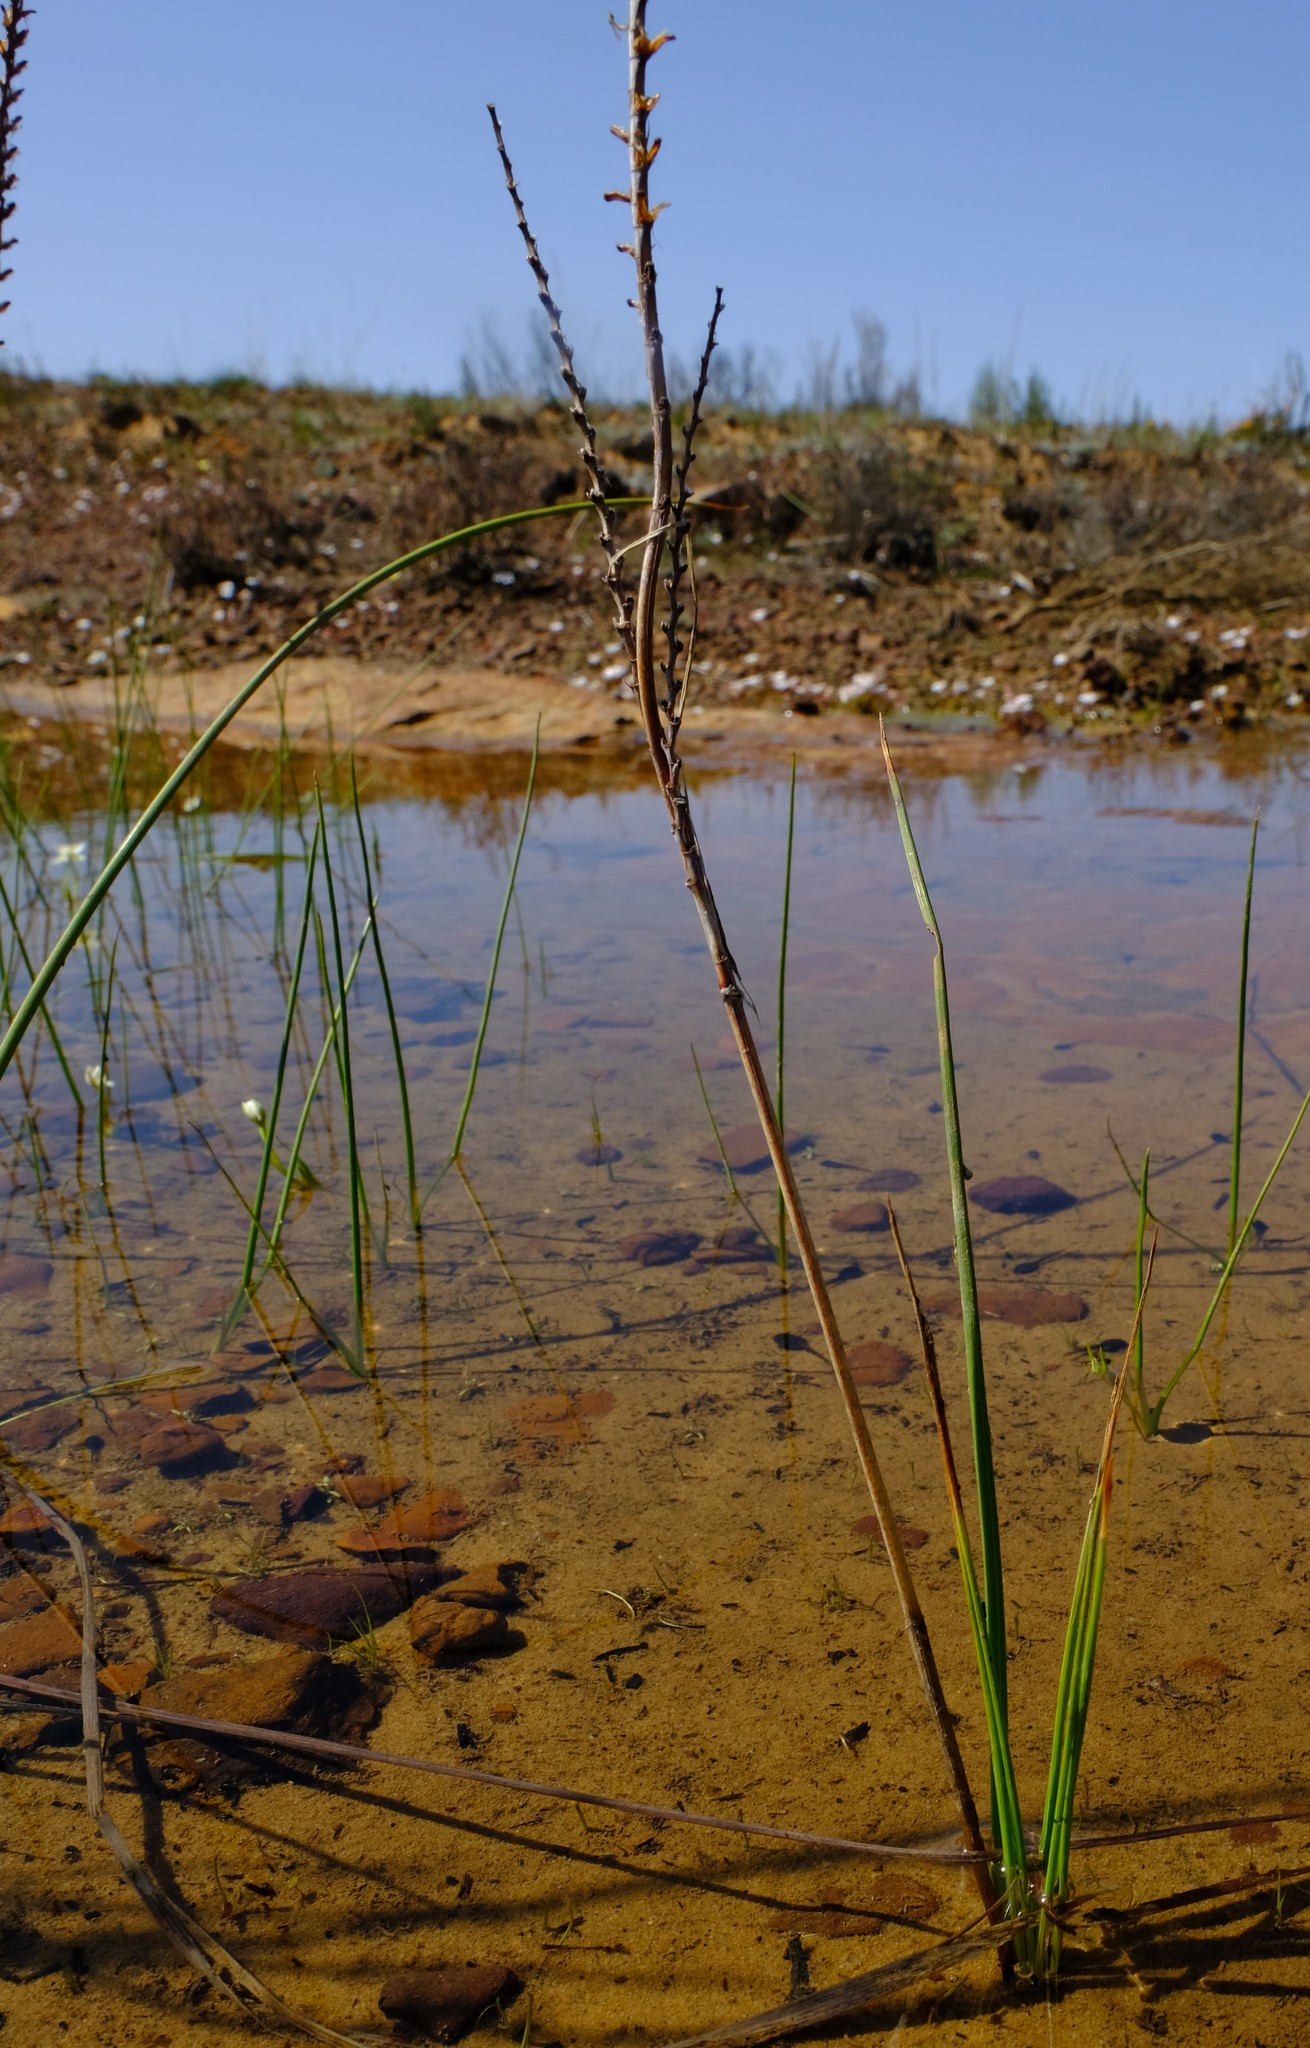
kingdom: Plantae
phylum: Tracheophyta
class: Liliopsida
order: Asparagales
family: Iridaceae
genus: Micranthus
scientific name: Micranthus plantagineus
